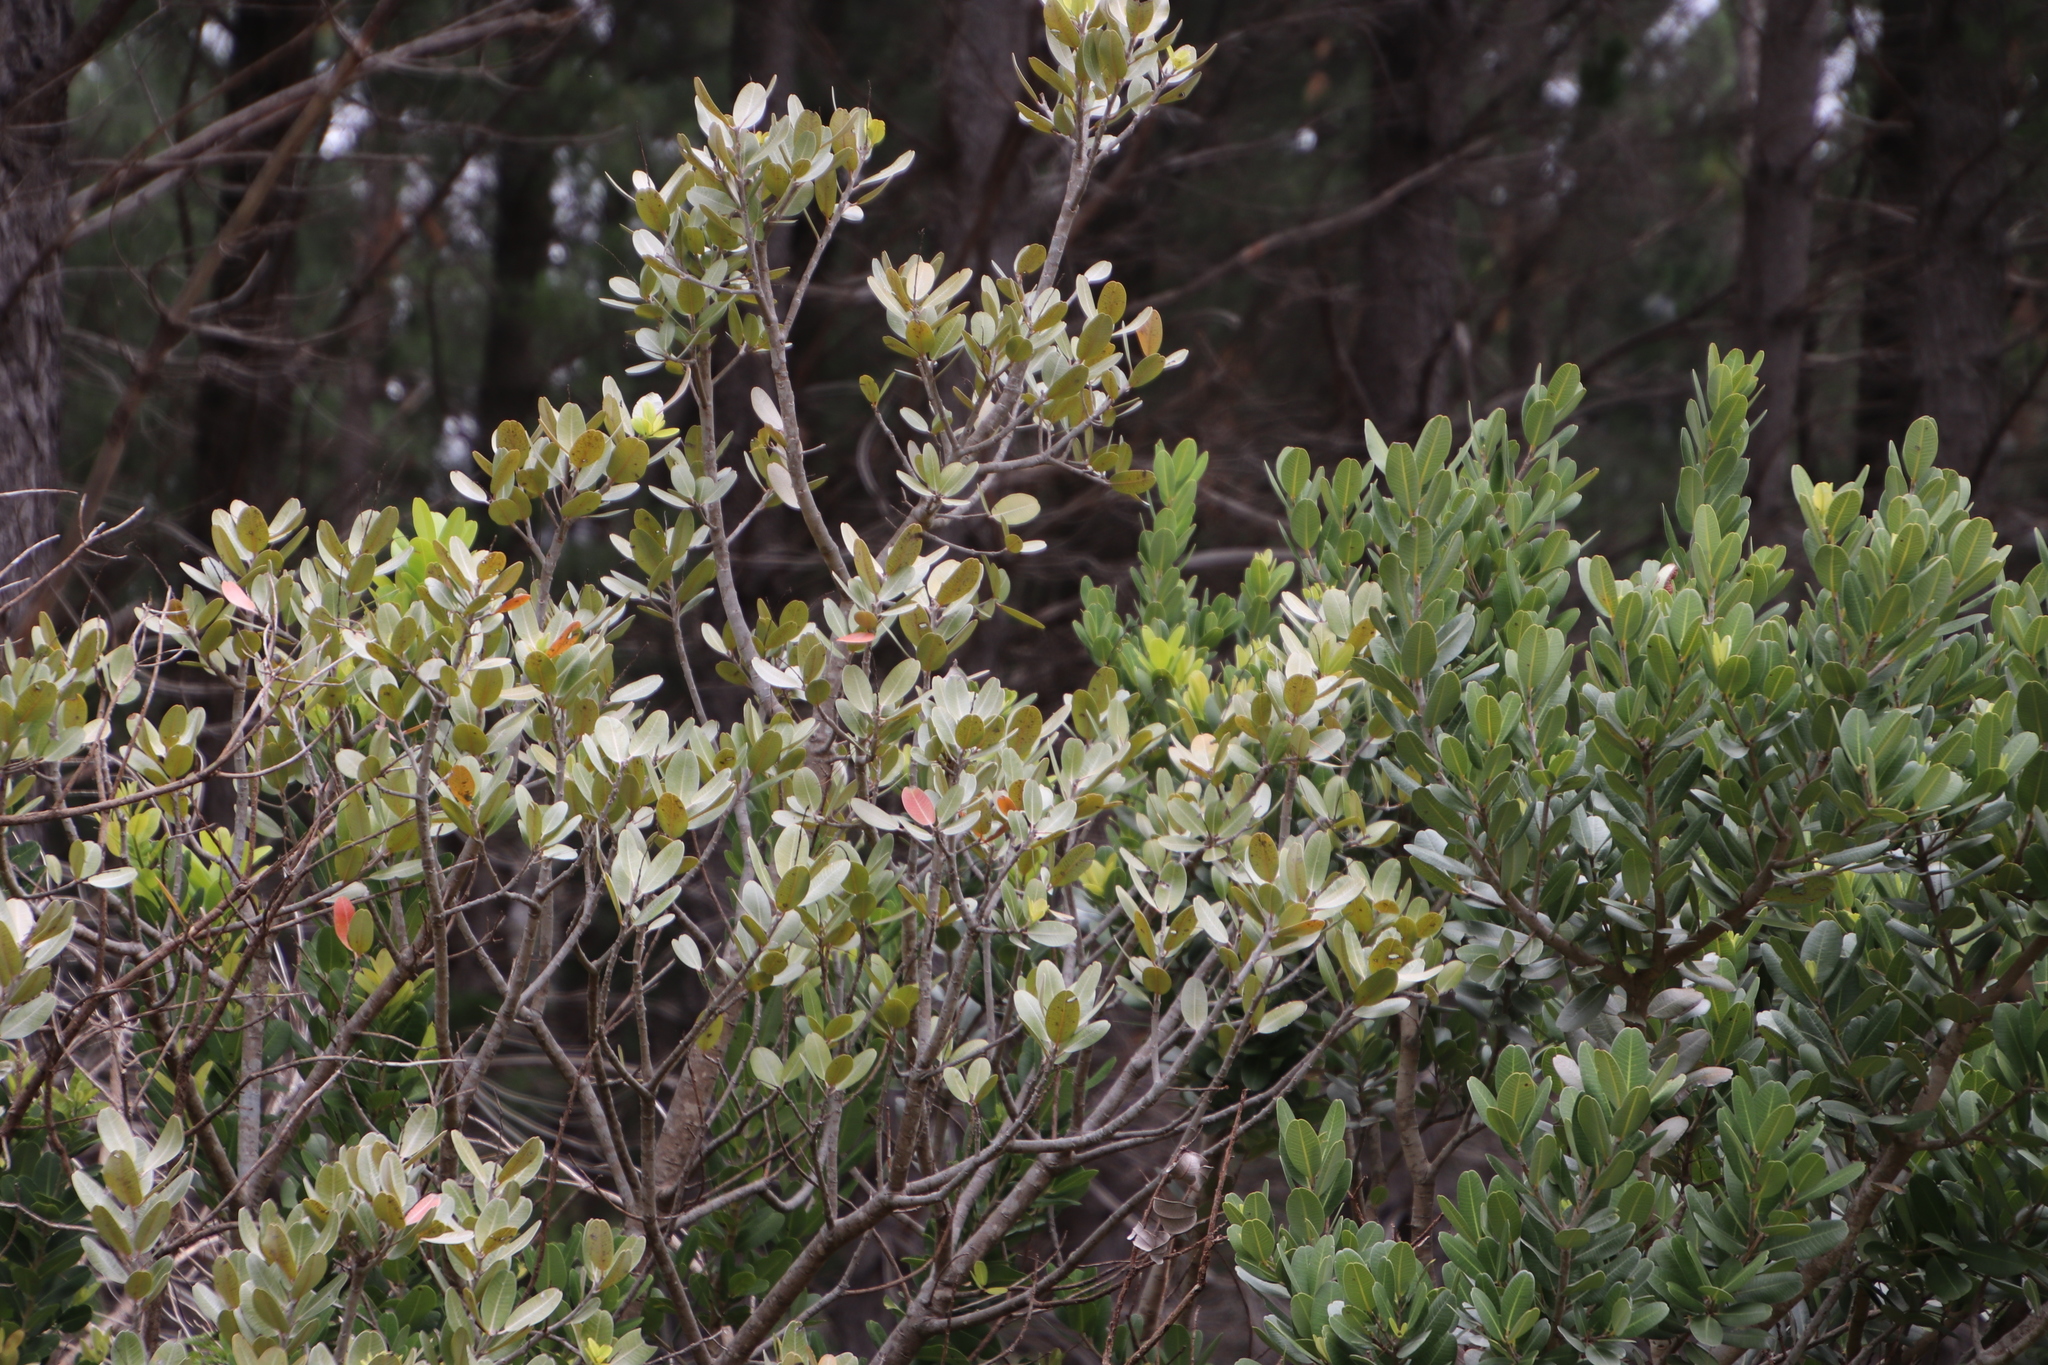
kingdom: Plantae
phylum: Tracheophyta
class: Magnoliopsida
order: Sapindales
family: Anacardiaceae
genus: Heeria
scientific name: Heeria argentea
